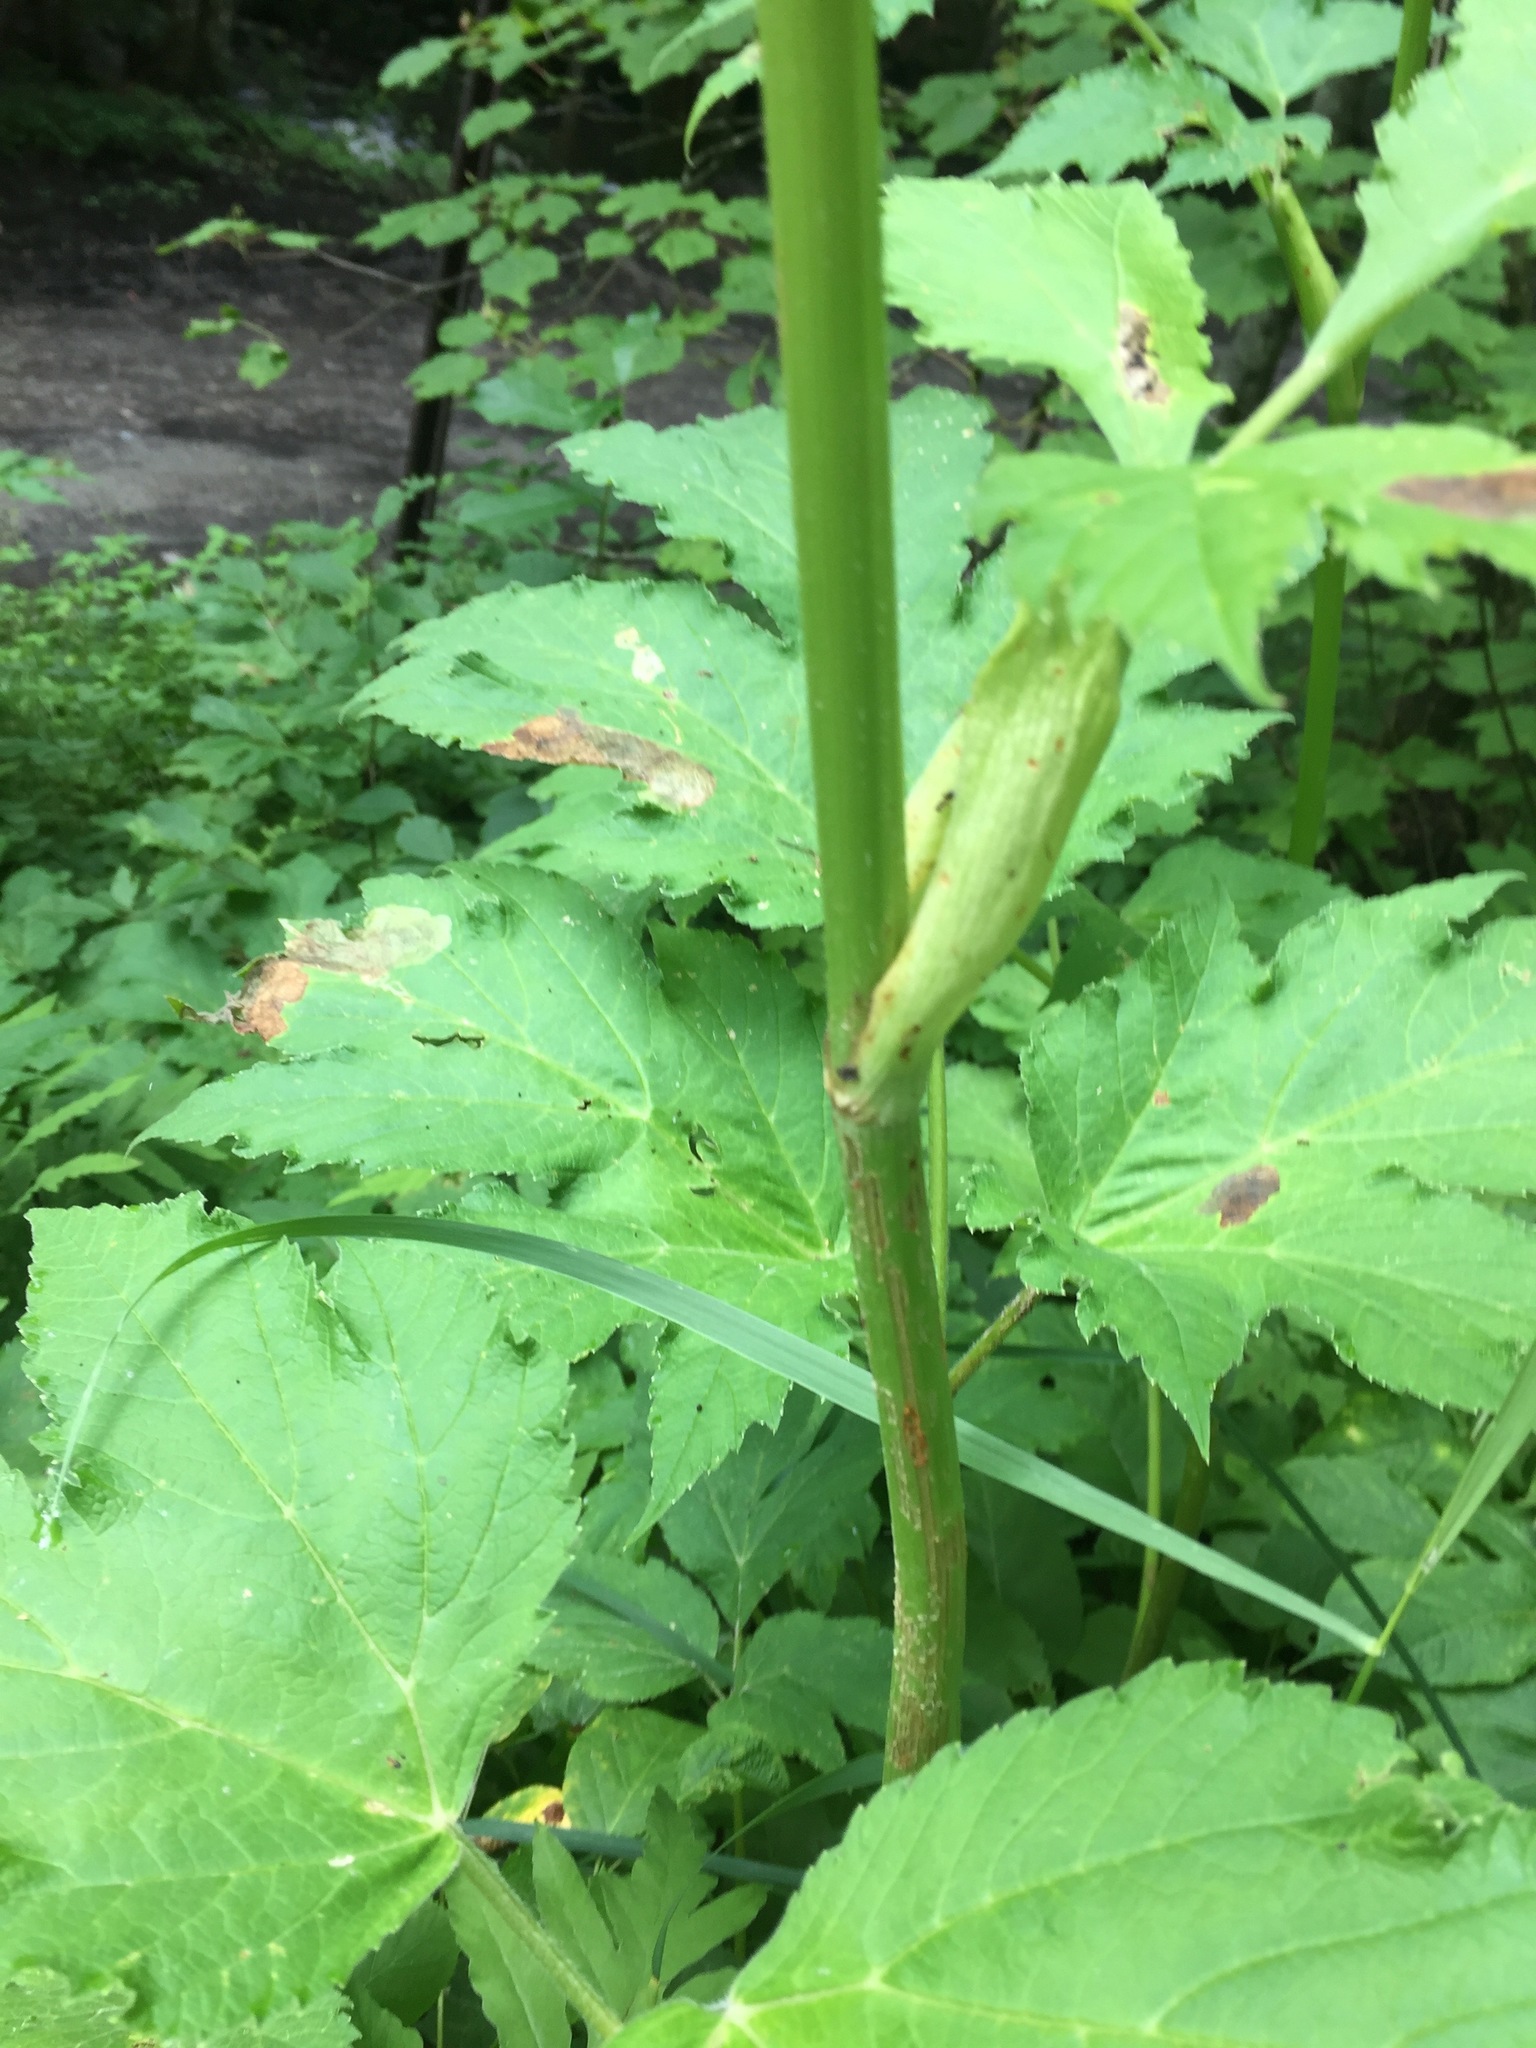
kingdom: Plantae
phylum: Tracheophyta
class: Magnoliopsida
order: Apiales
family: Apiaceae
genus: Heracleum
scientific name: Heracleum maximum
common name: American cow parsnip
